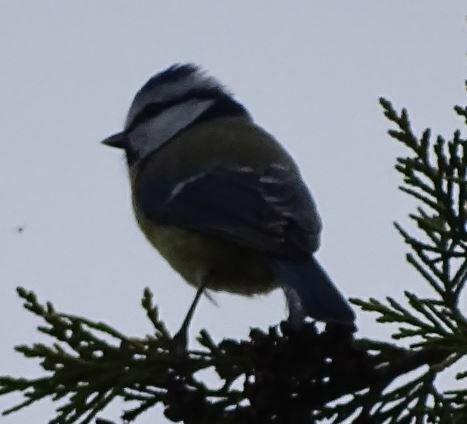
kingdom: Animalia
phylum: Chordata
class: Aves
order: Passeriformes
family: Paridae
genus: Cyanistes
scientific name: Cyanistes caeruleus
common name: Eurasian blue tit
